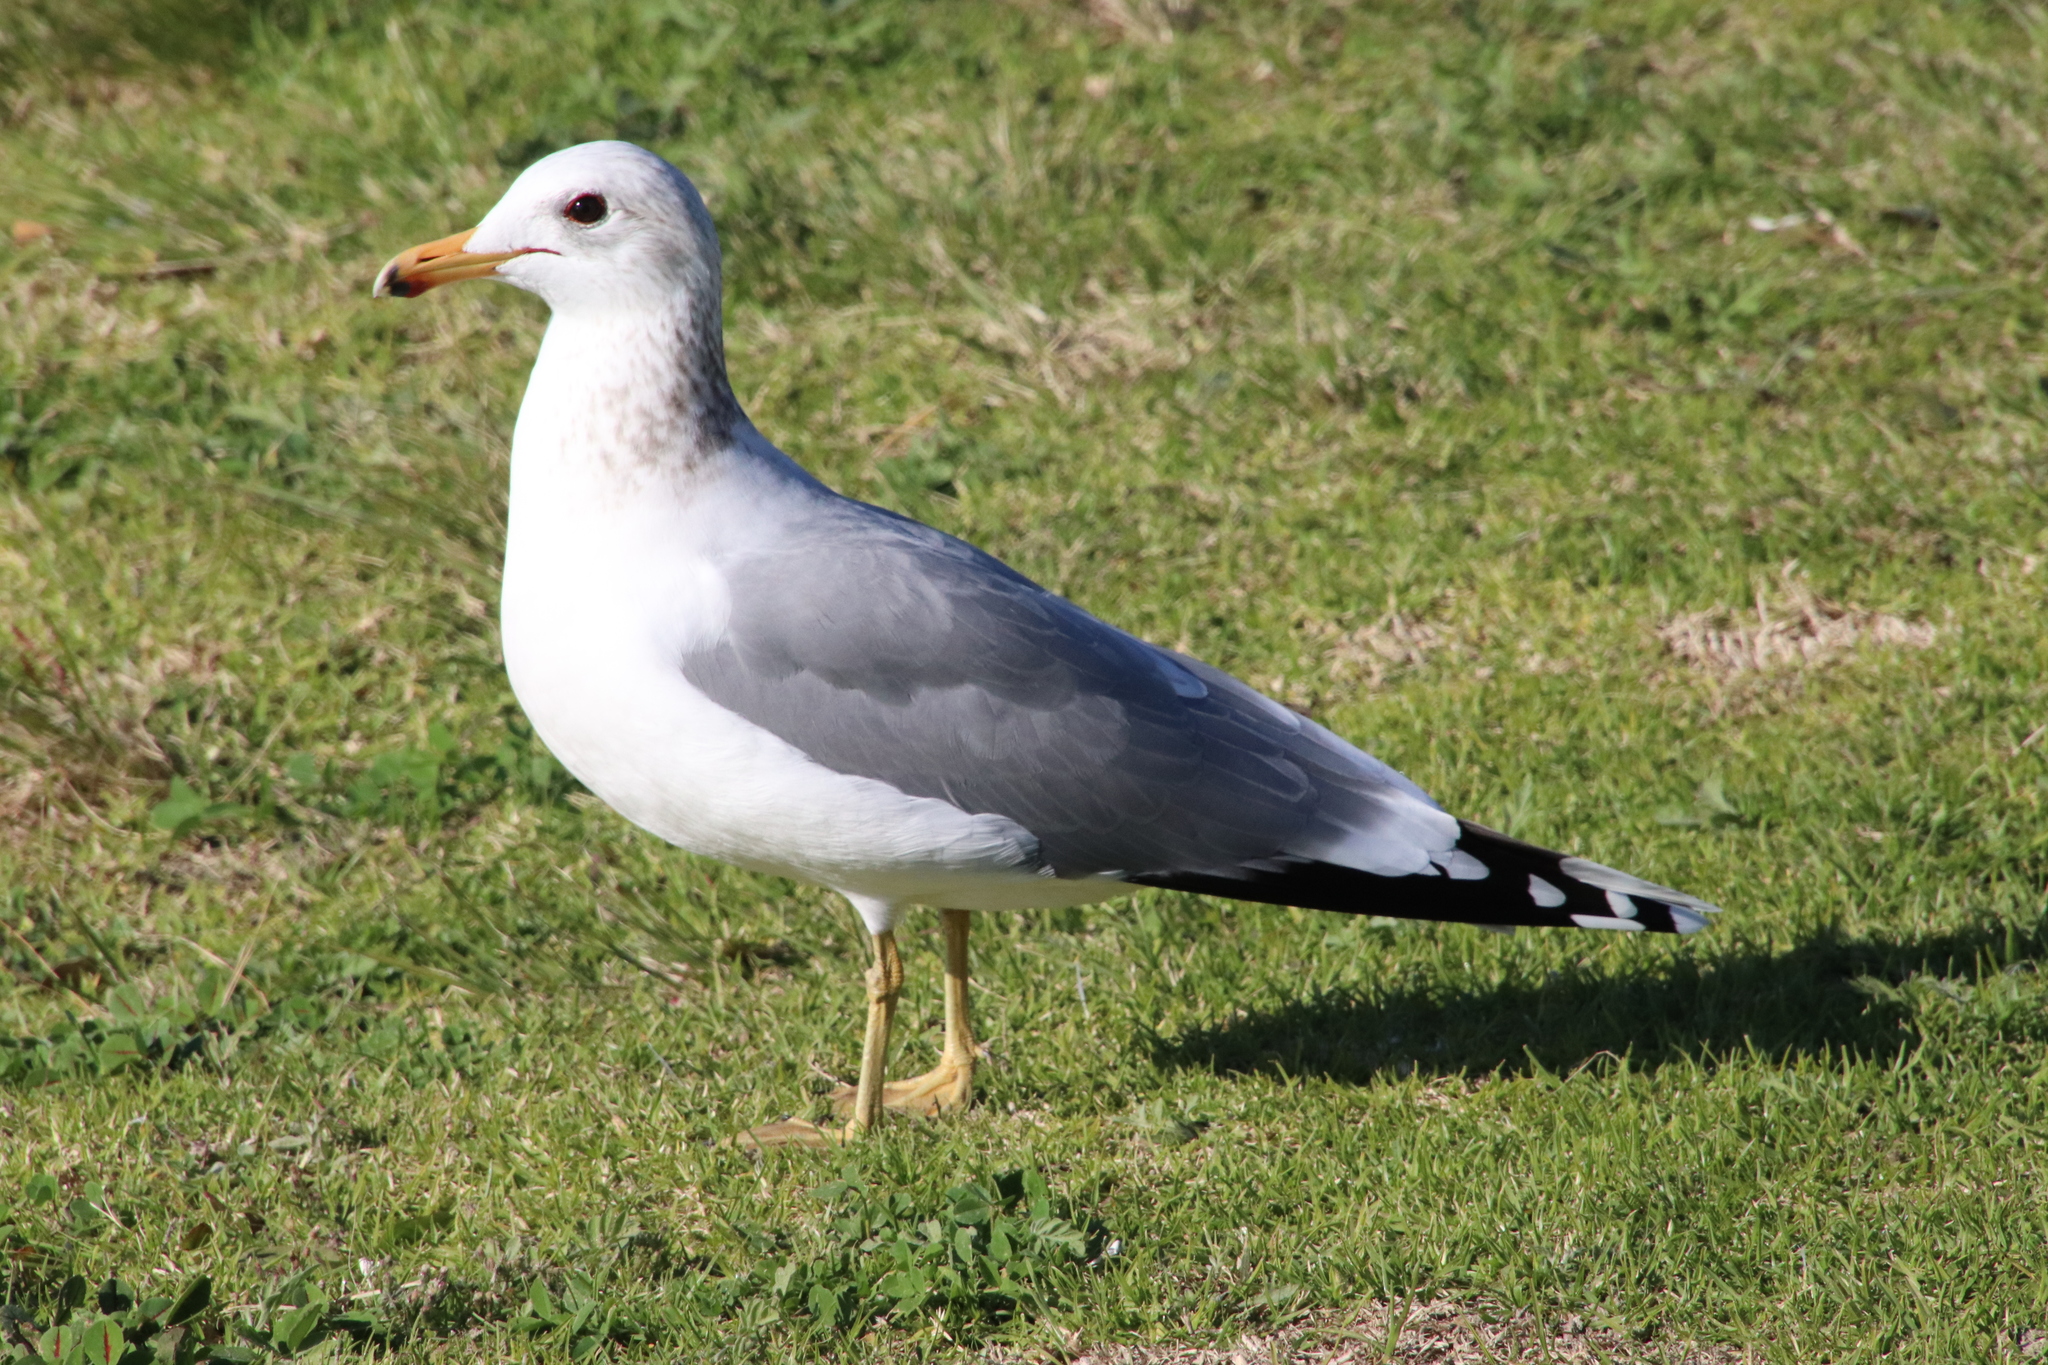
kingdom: Animalia
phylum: Chordata
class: Aves
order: Charadriiformes
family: Laridae
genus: Larus
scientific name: Larus californicus
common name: California gull
